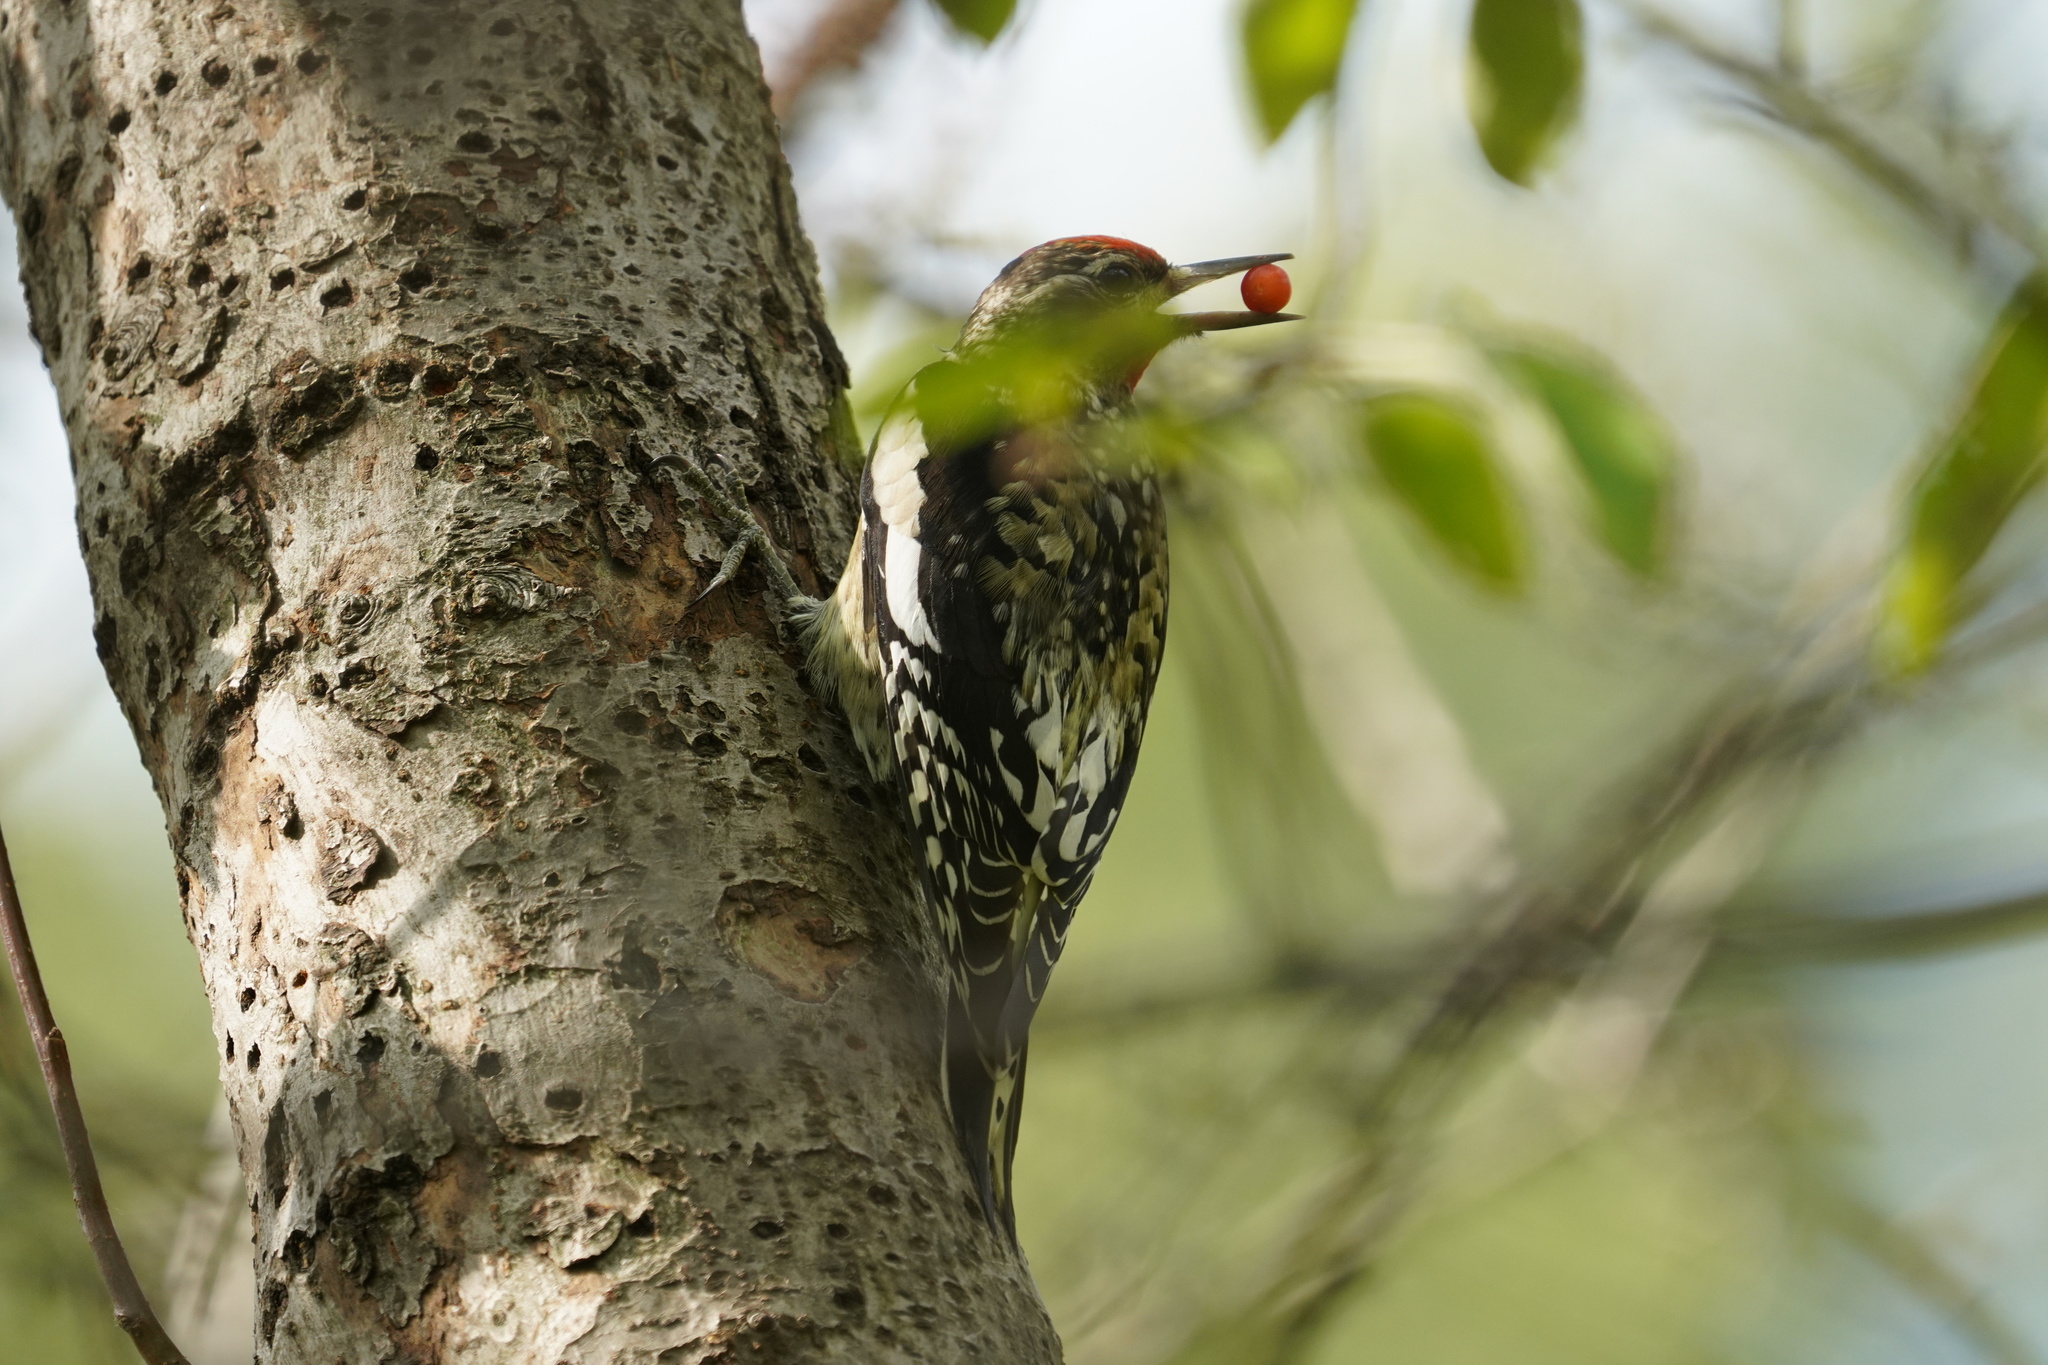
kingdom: Animalia
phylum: Chordata
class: Aves
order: Piciformes
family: Picidae
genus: Sphyrapicus
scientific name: Sphyrapicus varius
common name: Yellow-bellied sapsucker
